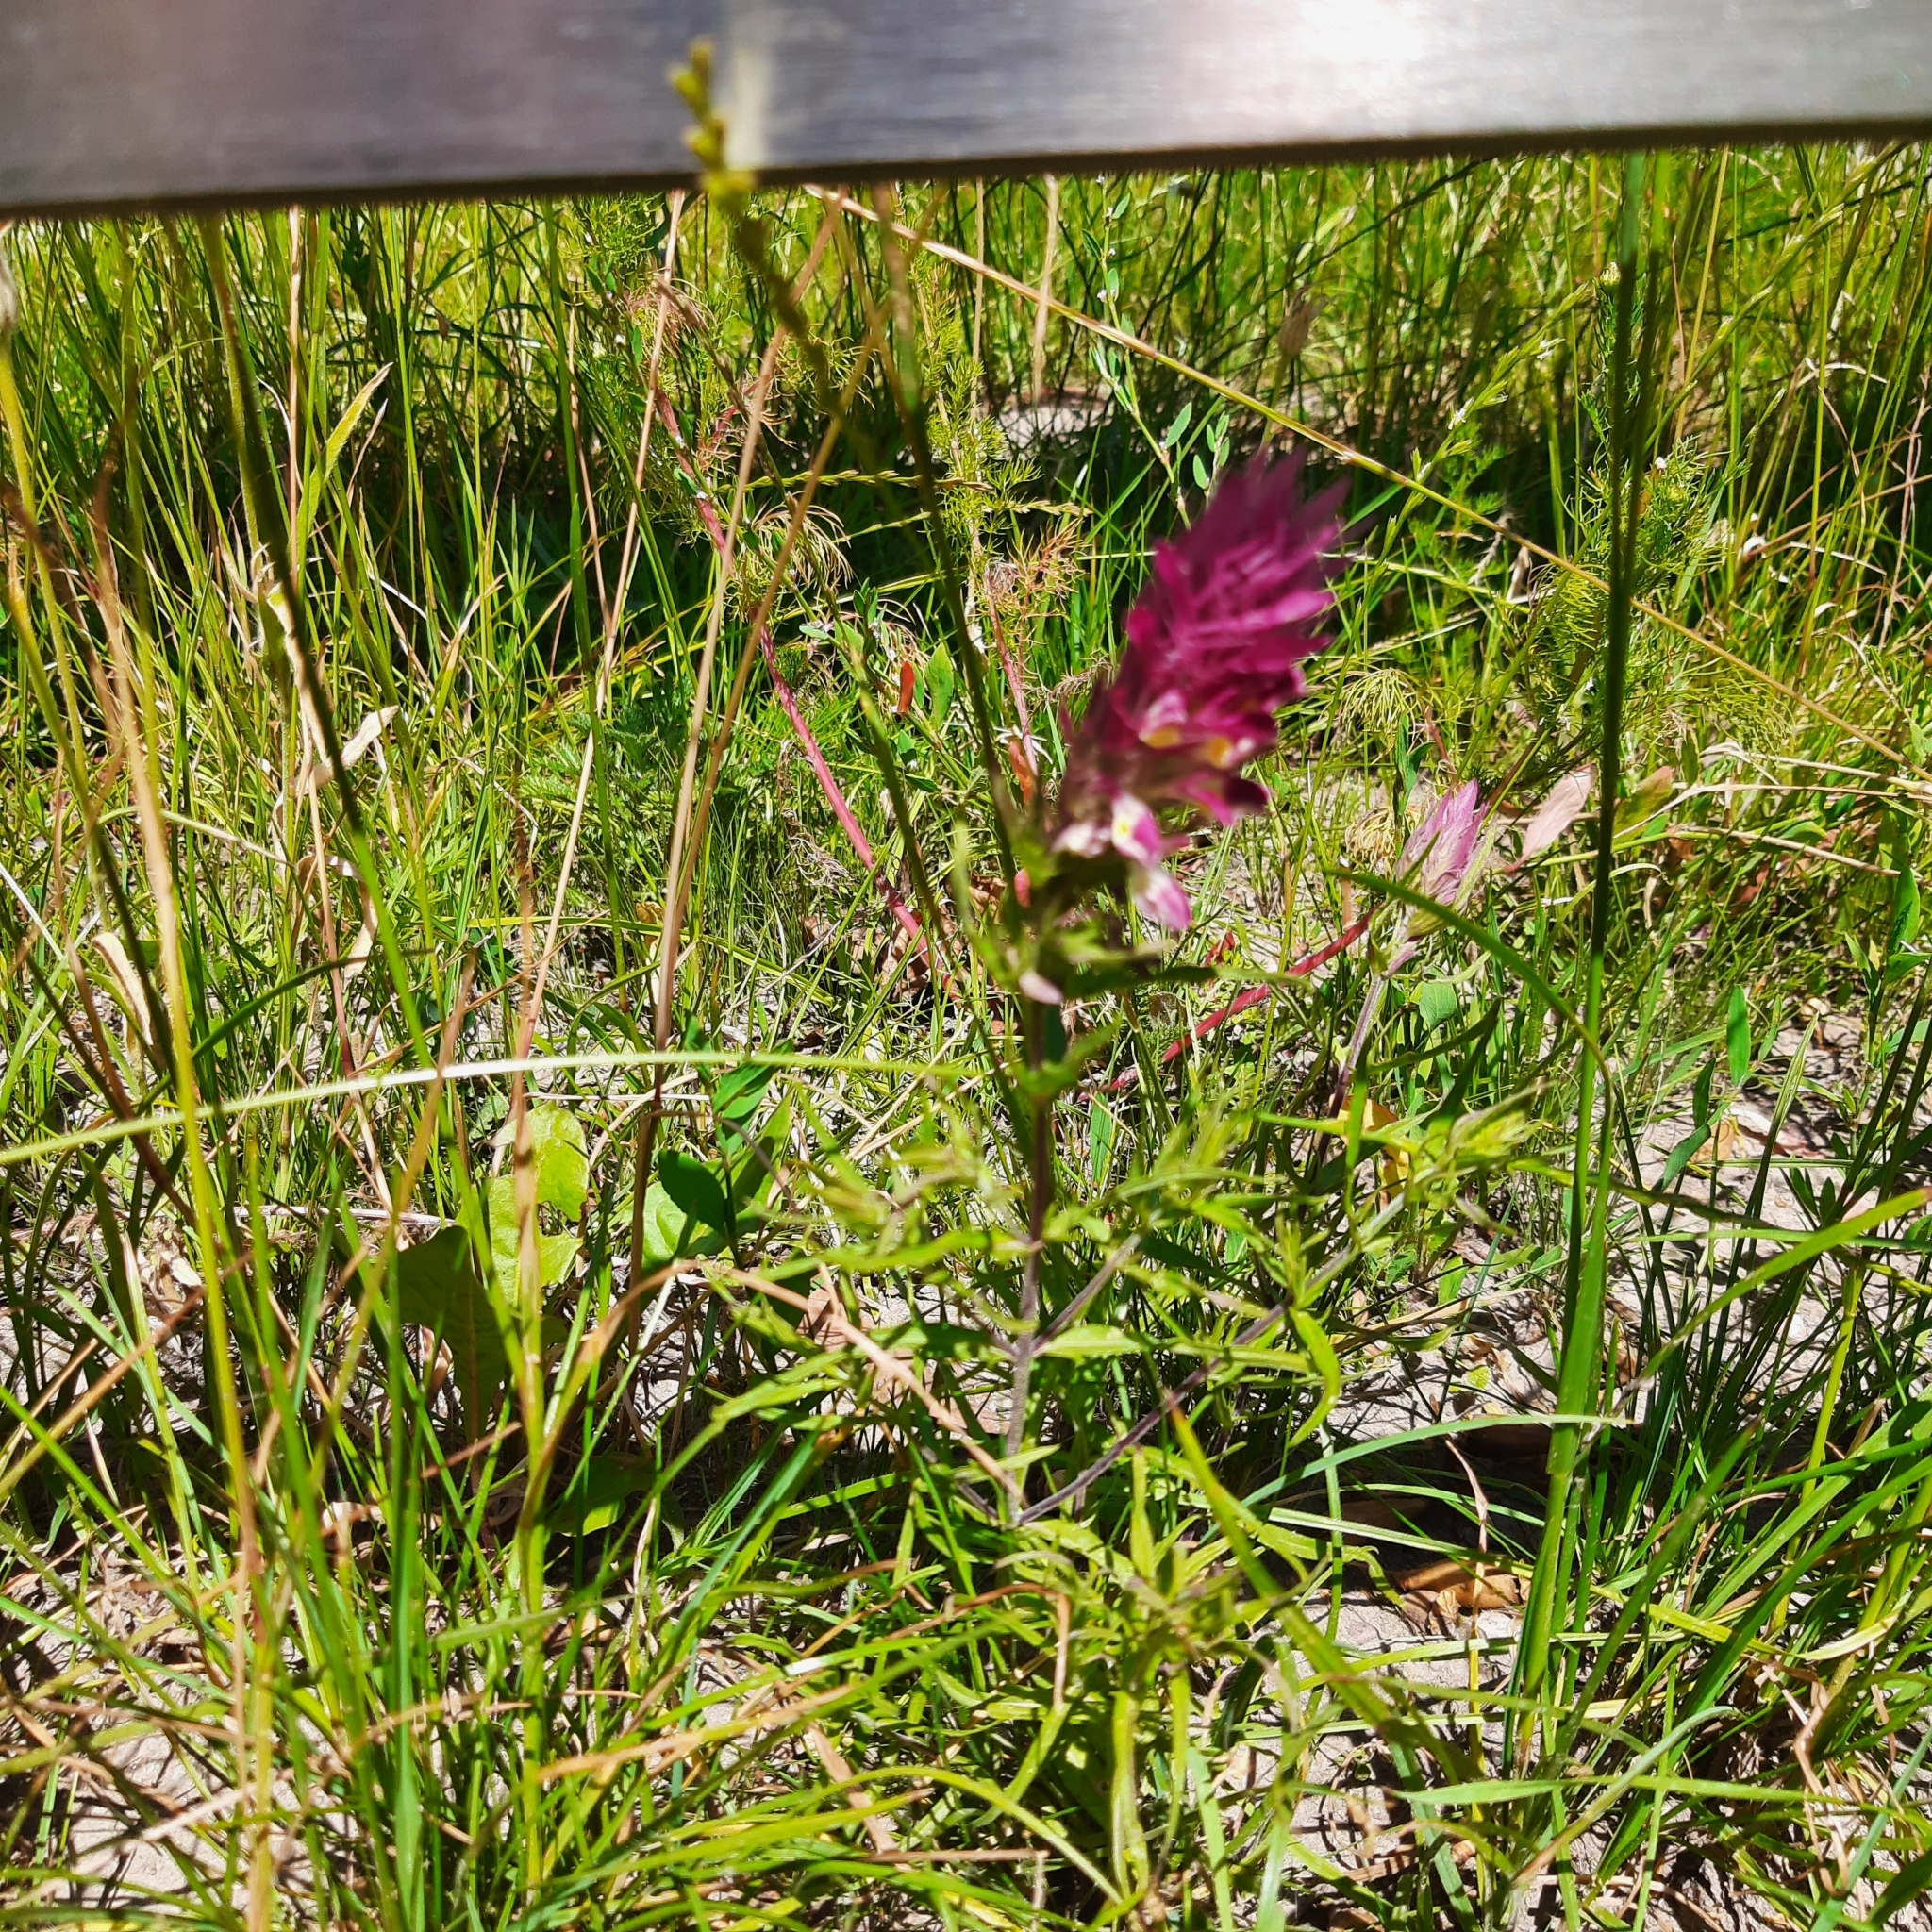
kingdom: Plantae
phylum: Tracheophyta
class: Magnoliopsida
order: Lamiales
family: Orobanchaceae
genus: Melampyrum
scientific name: Melampyrum arvense
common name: Field cow-wheat
